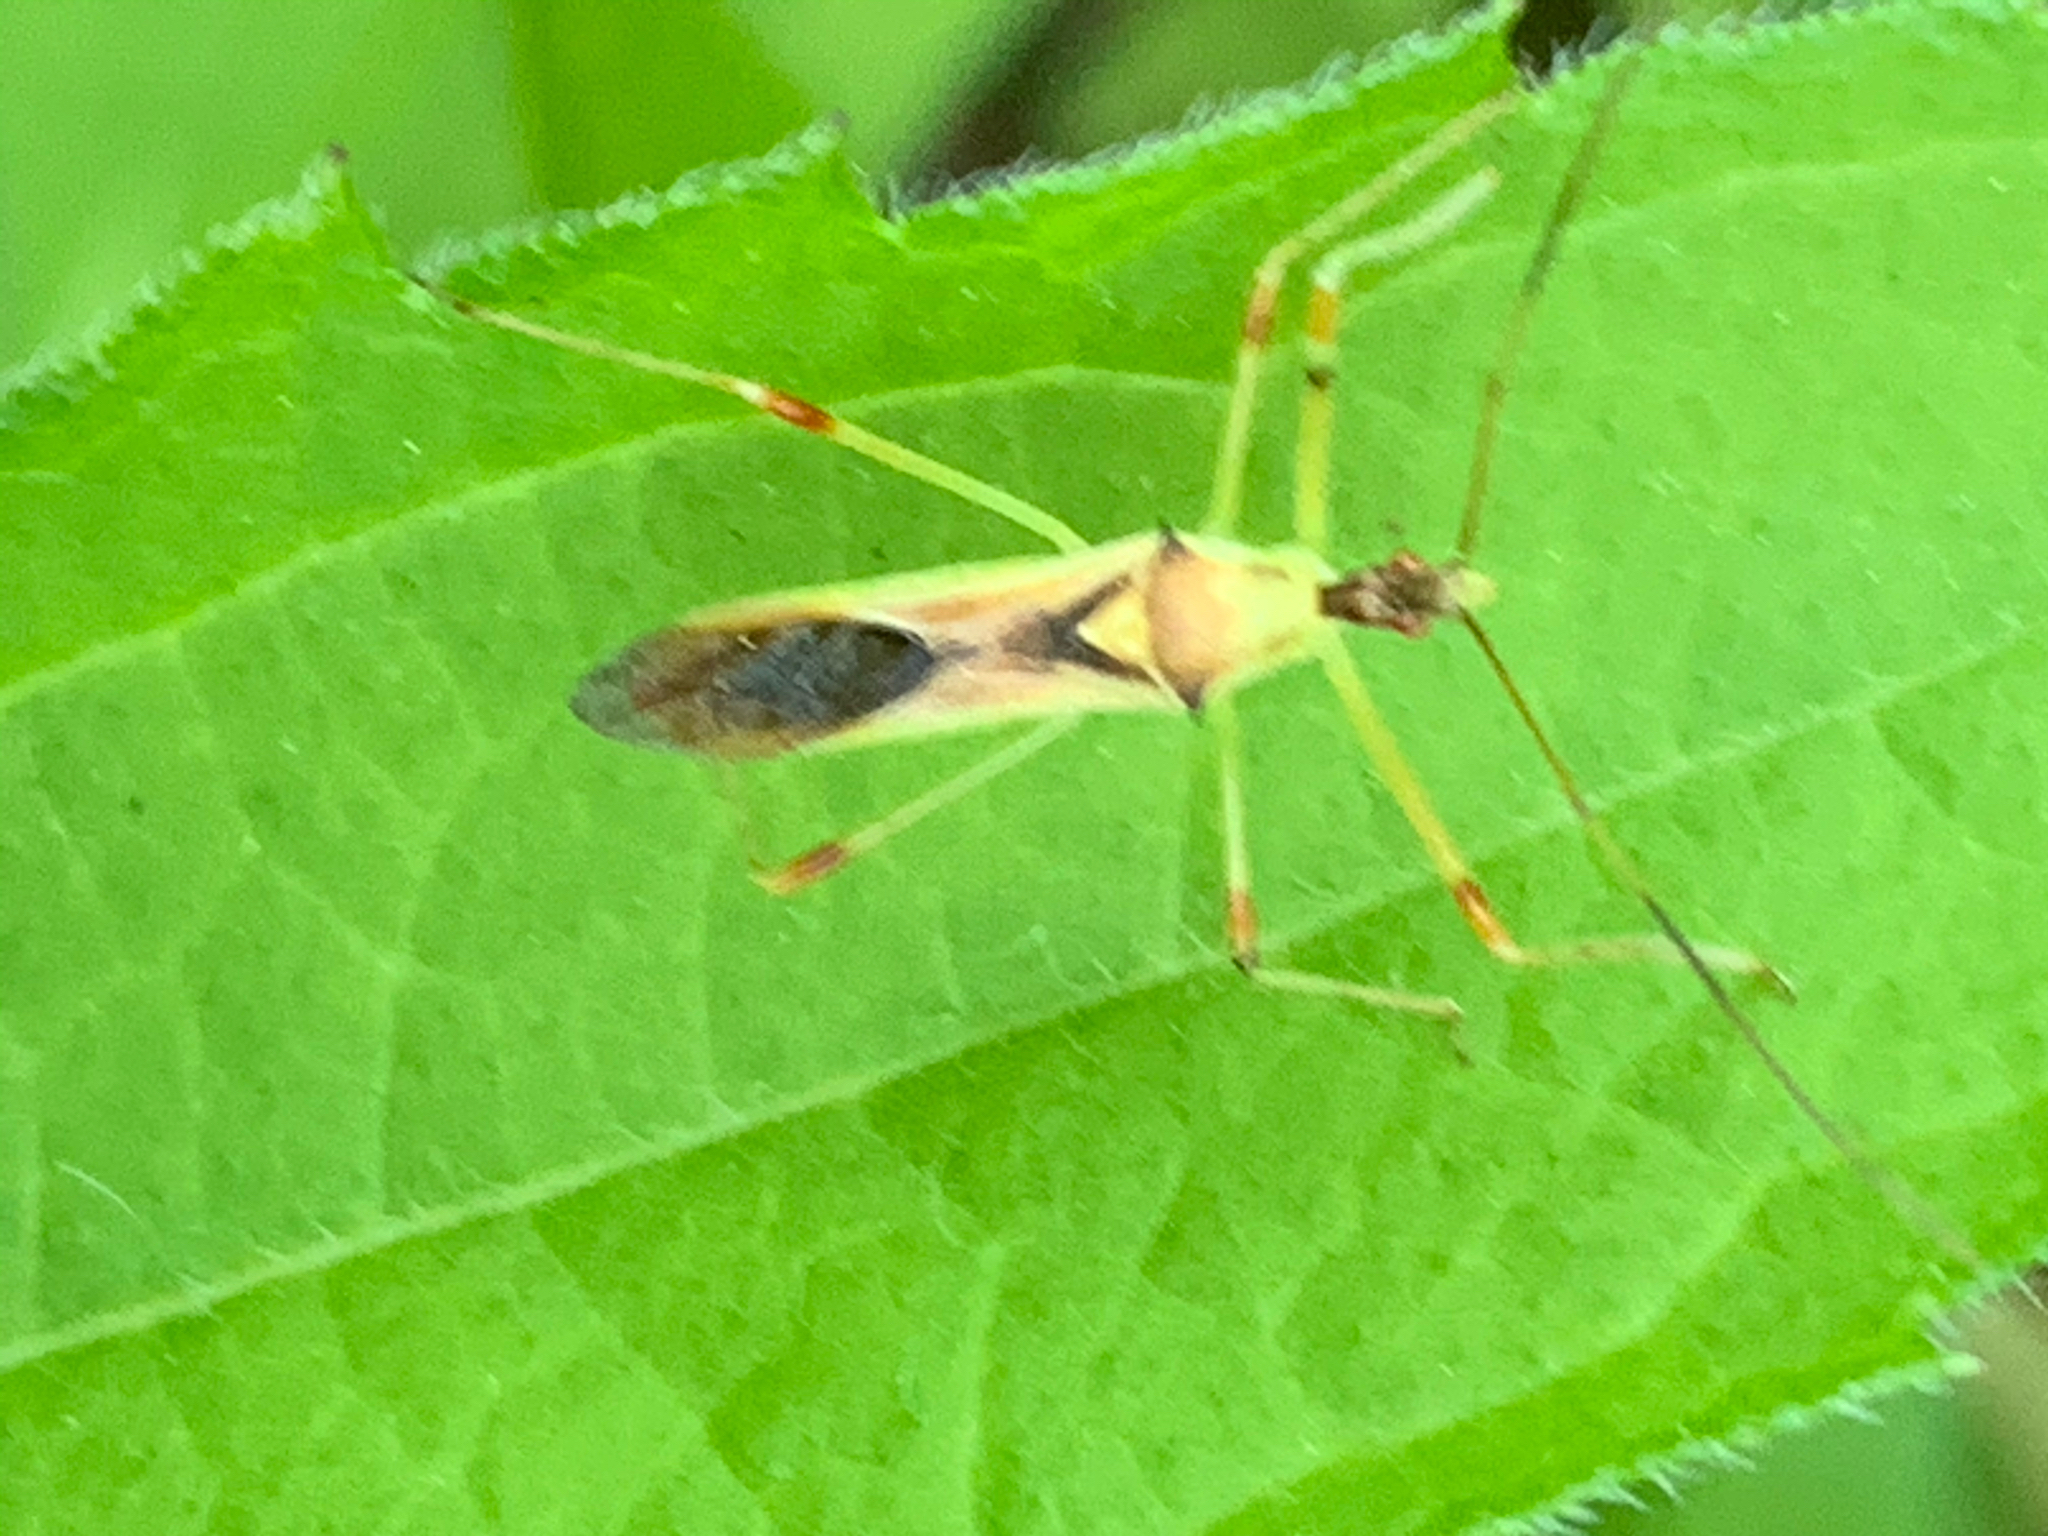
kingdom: Animalia
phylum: Arthropoda
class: Insecta
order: Hemiptera
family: Reduviidae
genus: Zelus
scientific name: Zelus luridus
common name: Pale green assassin bug
